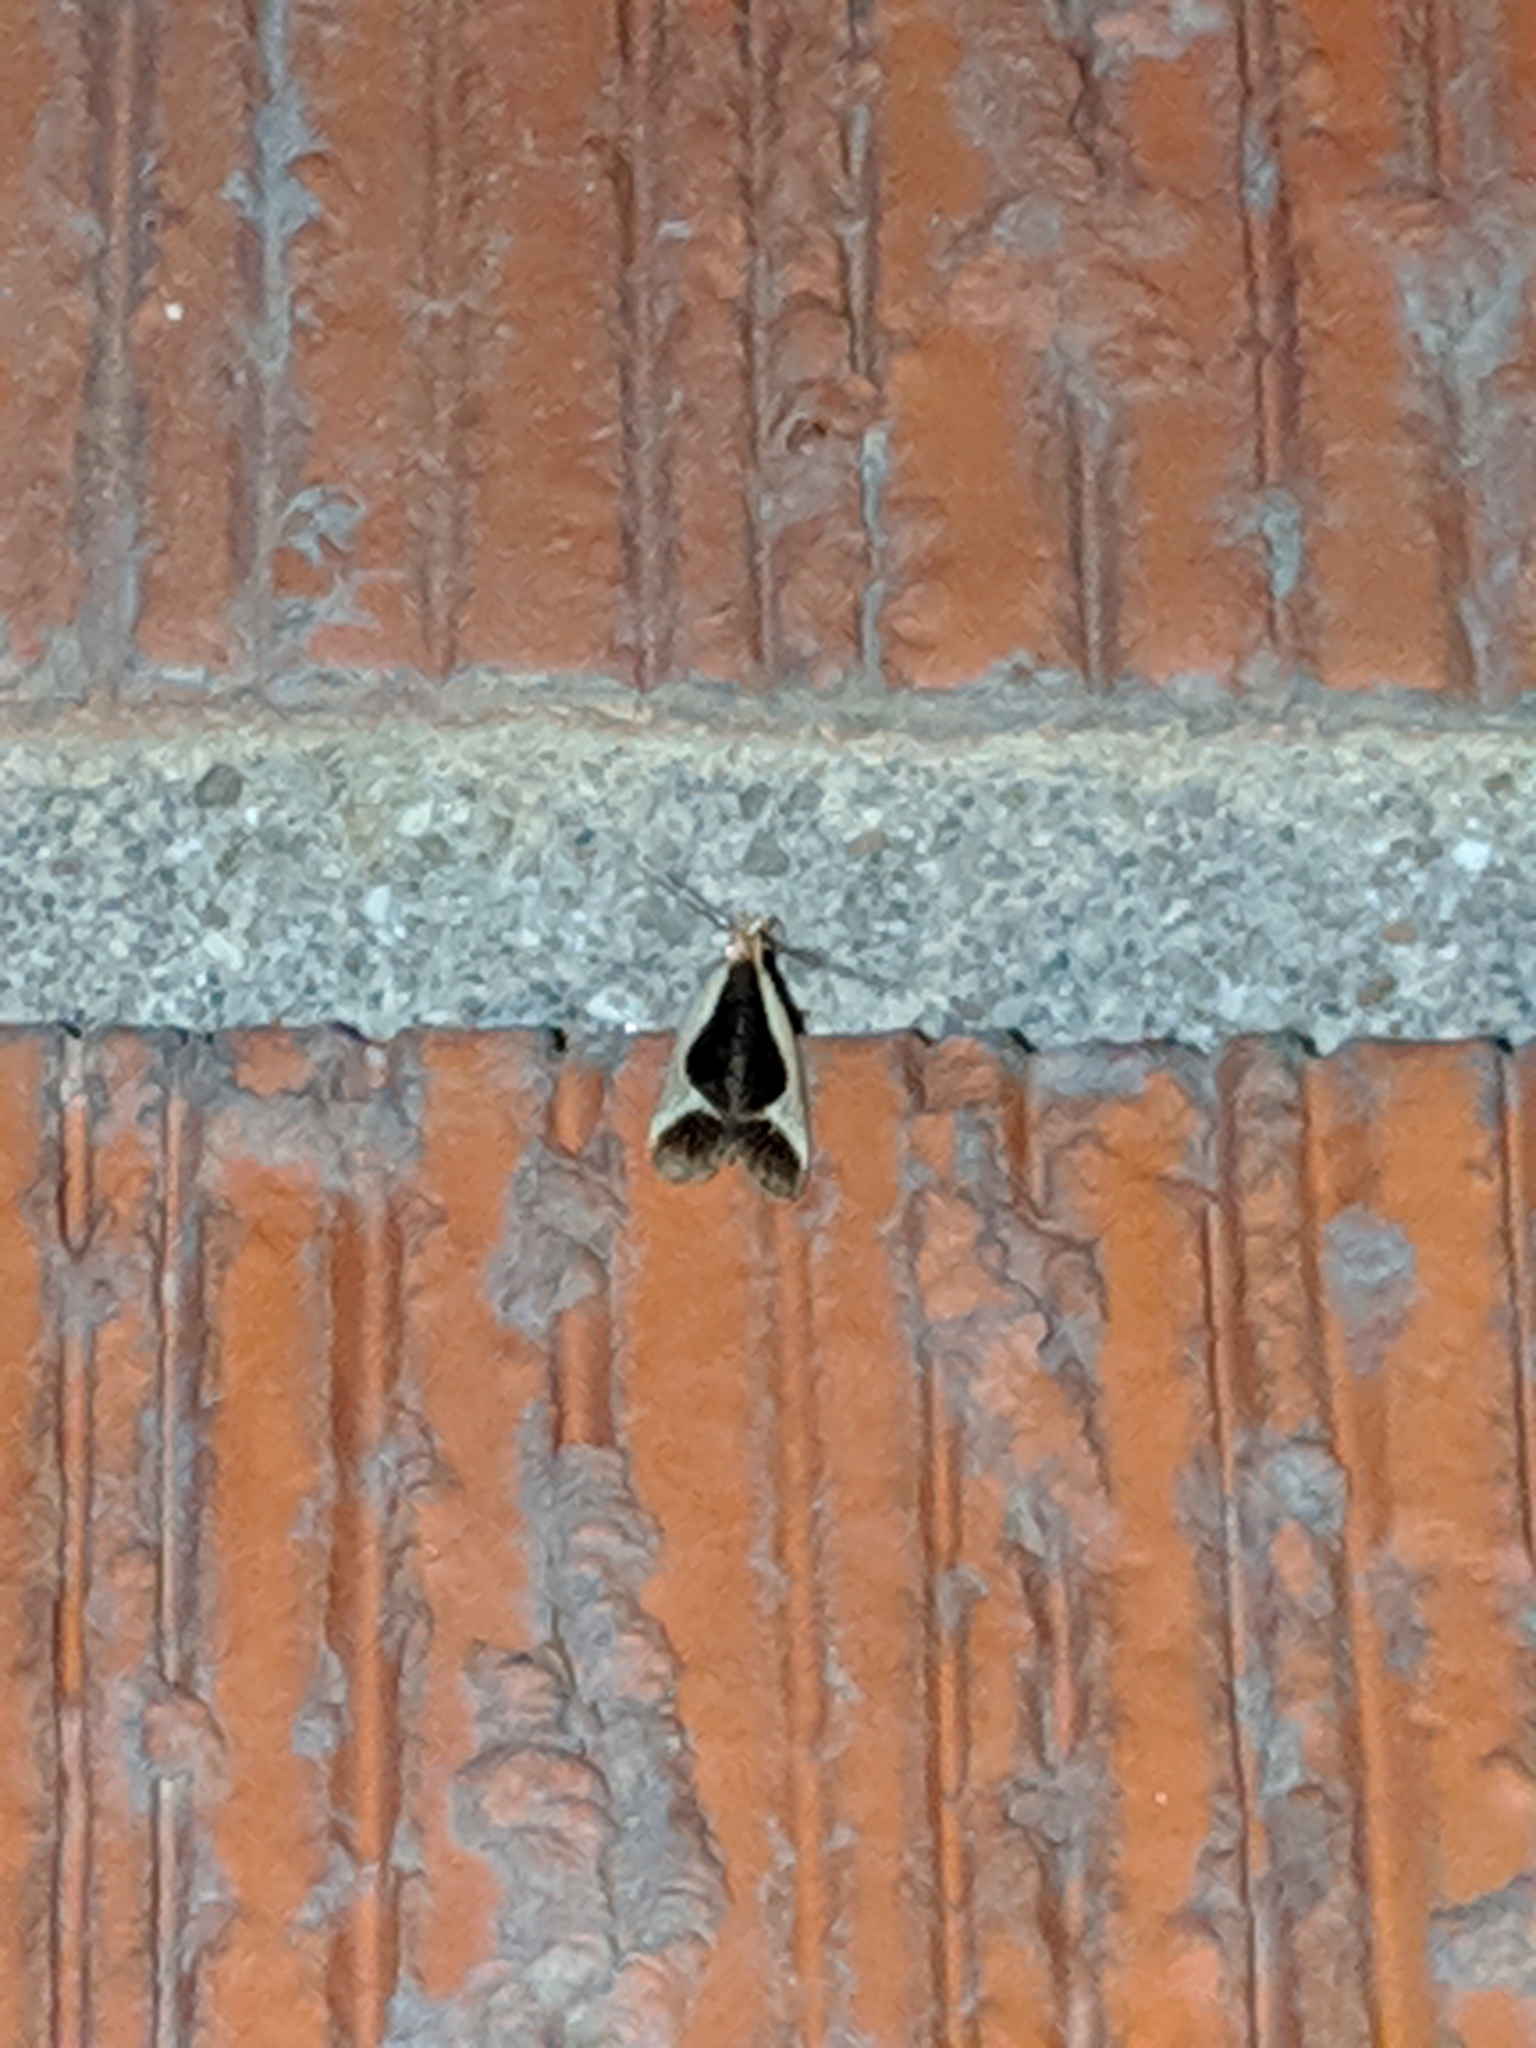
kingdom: Animalia
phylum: Arthropoda
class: Insecta
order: Lepidoptera
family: Gelechiidae
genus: Dichomeris
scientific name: Dichomeris flavocostella
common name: Cream-edged dichomeris moth
